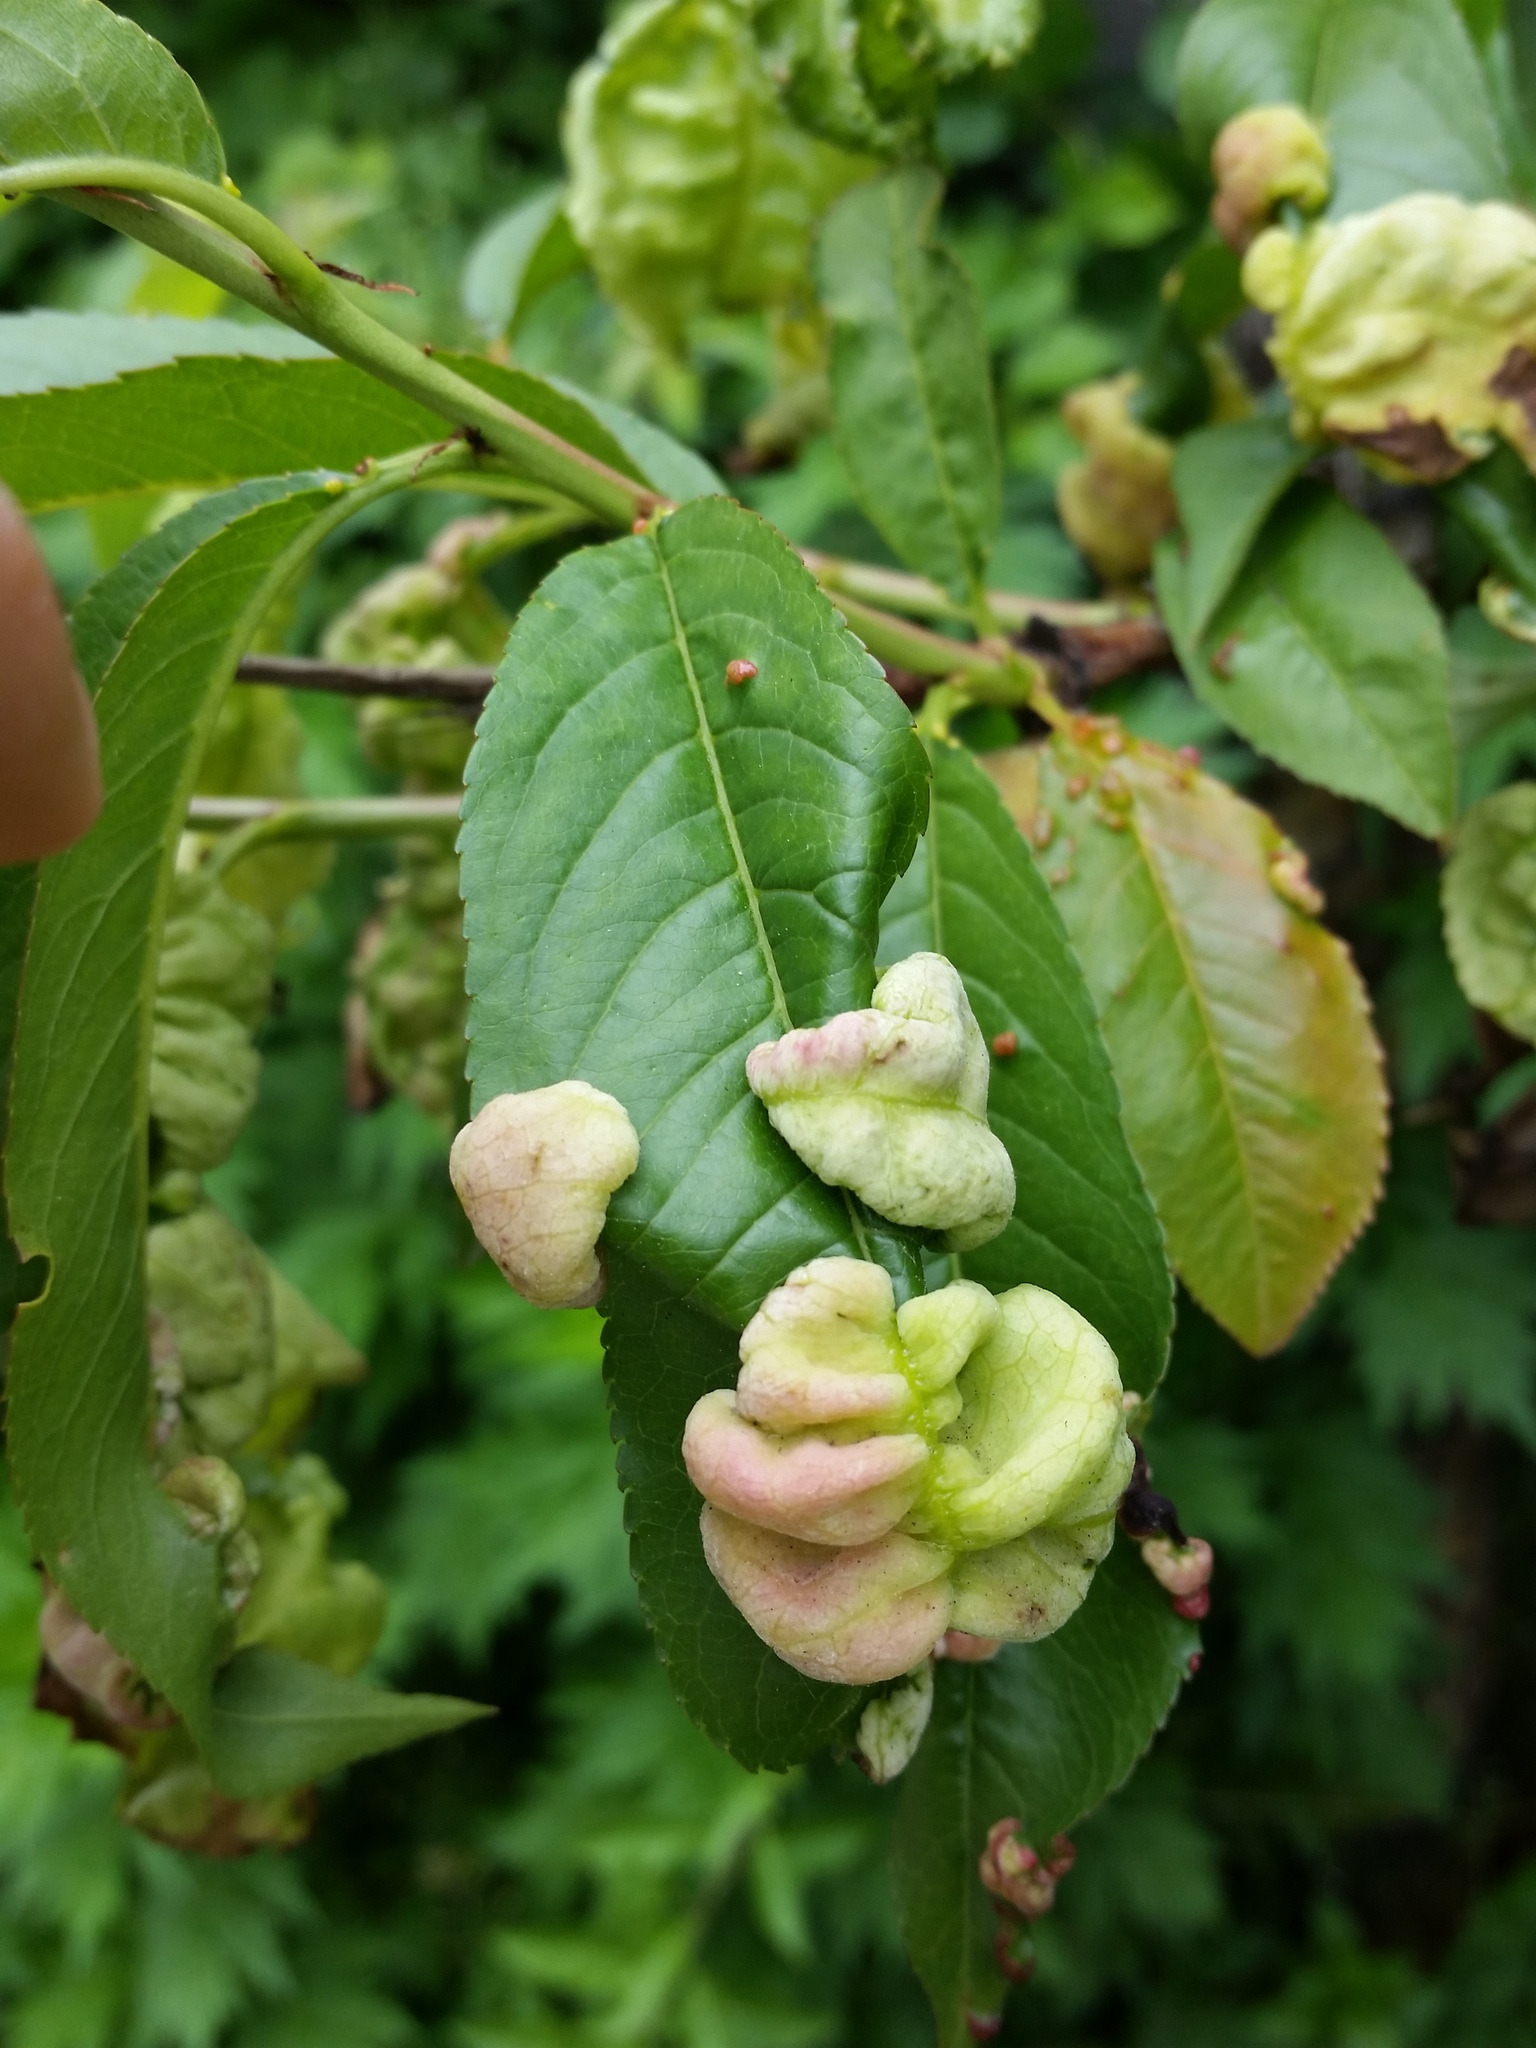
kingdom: Fungi
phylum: Ascomycota
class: Taphrinomycetes
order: Taphrinales
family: Taphrinaceae
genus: Taphrina
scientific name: Taphrina deformans
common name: Peach leaf curl
